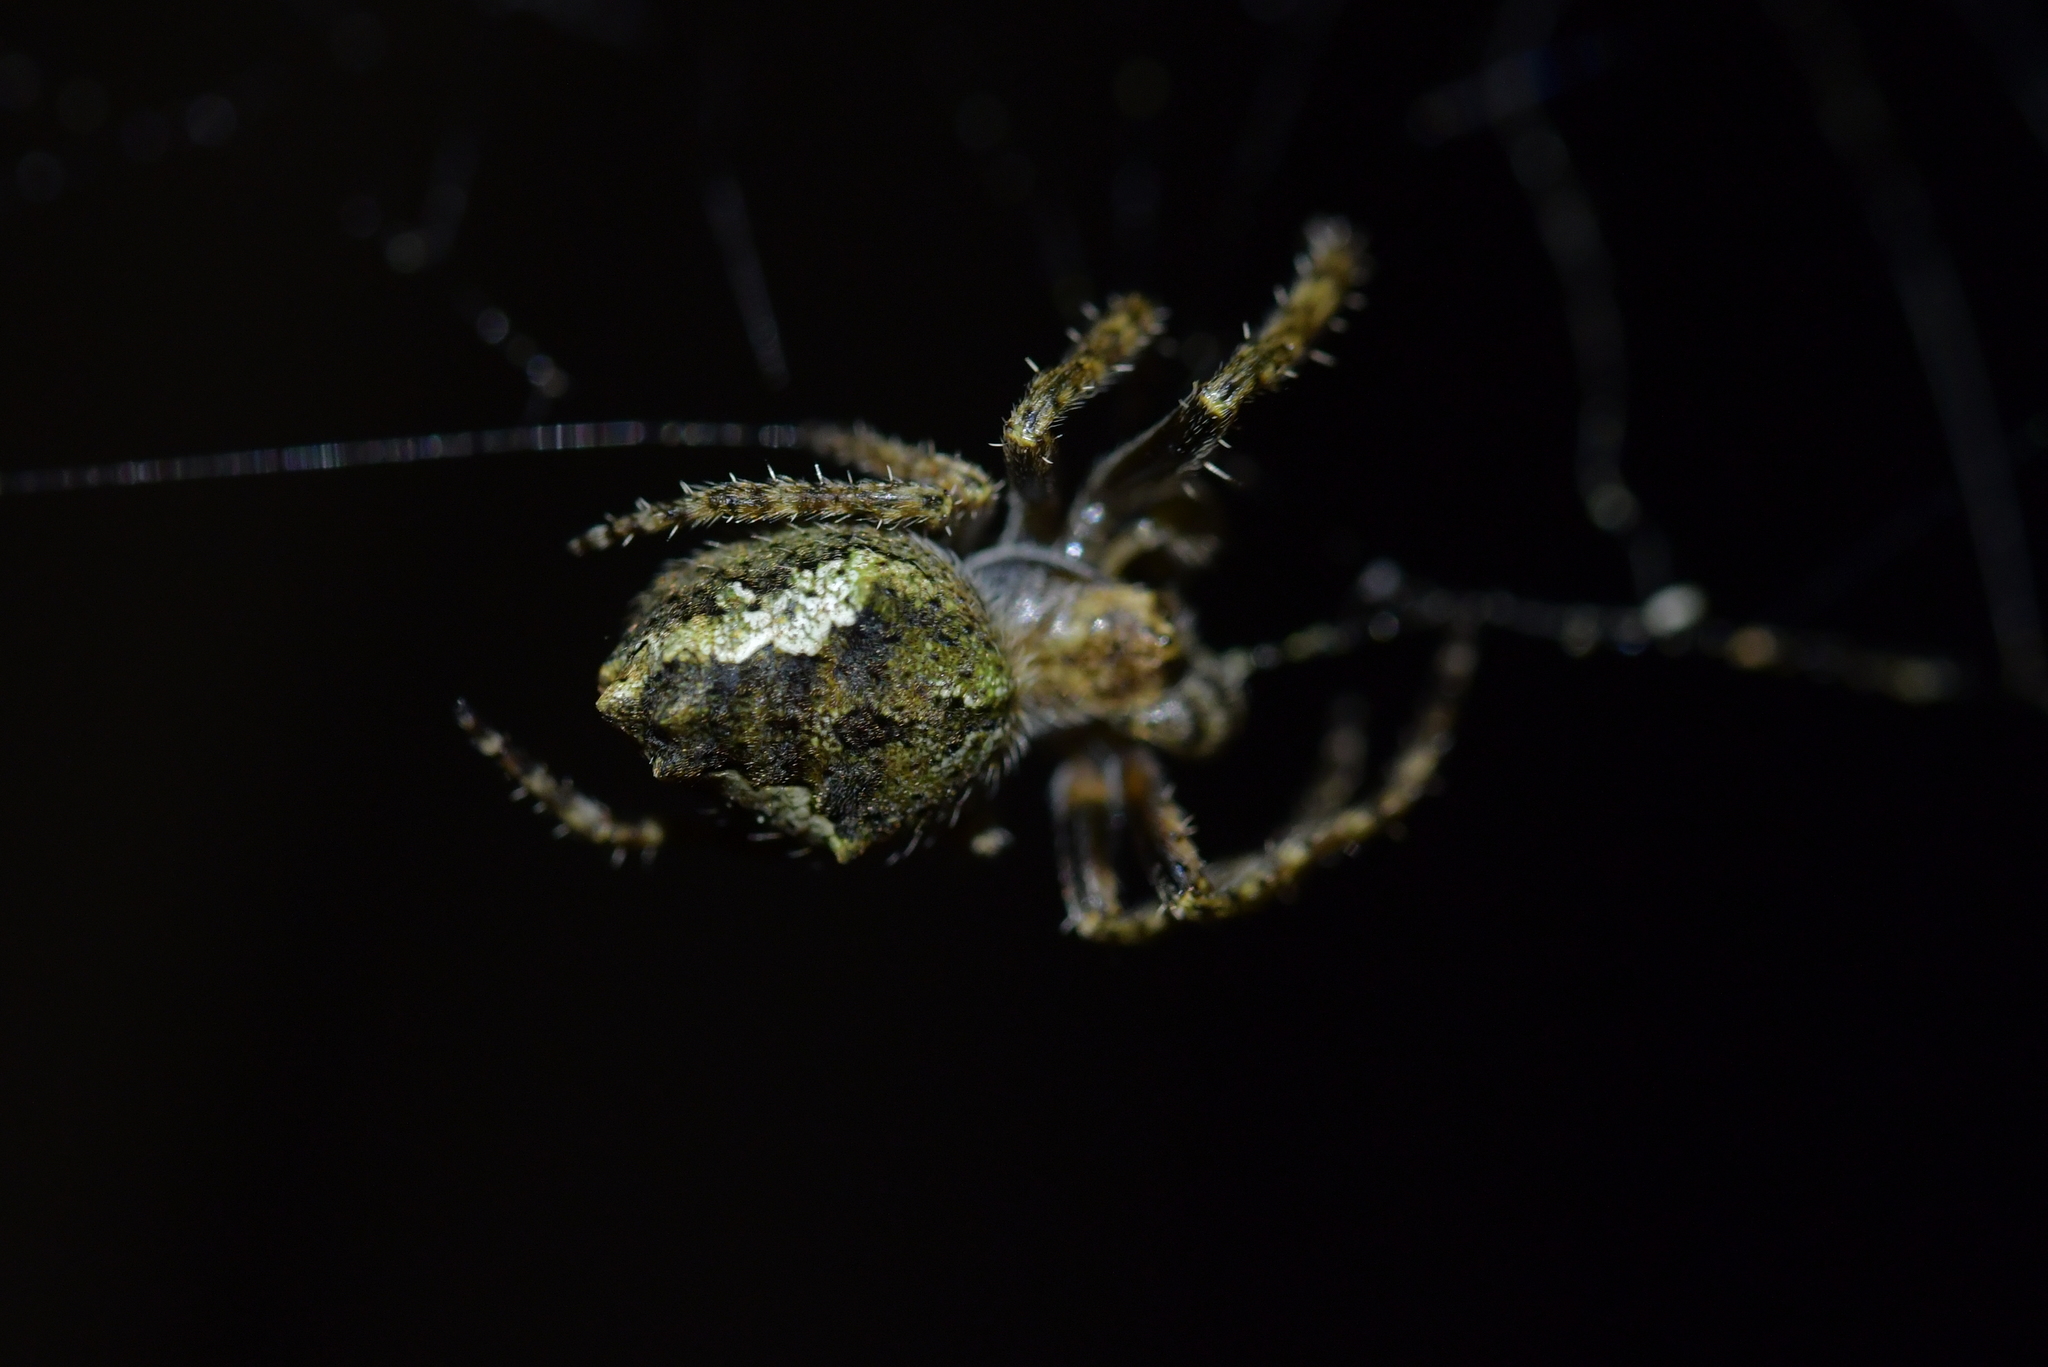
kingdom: Animalia
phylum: Arthropoda
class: Arachnida
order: Araneae
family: Araneidae
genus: Eriophora
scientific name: Eriophora pustulosa
